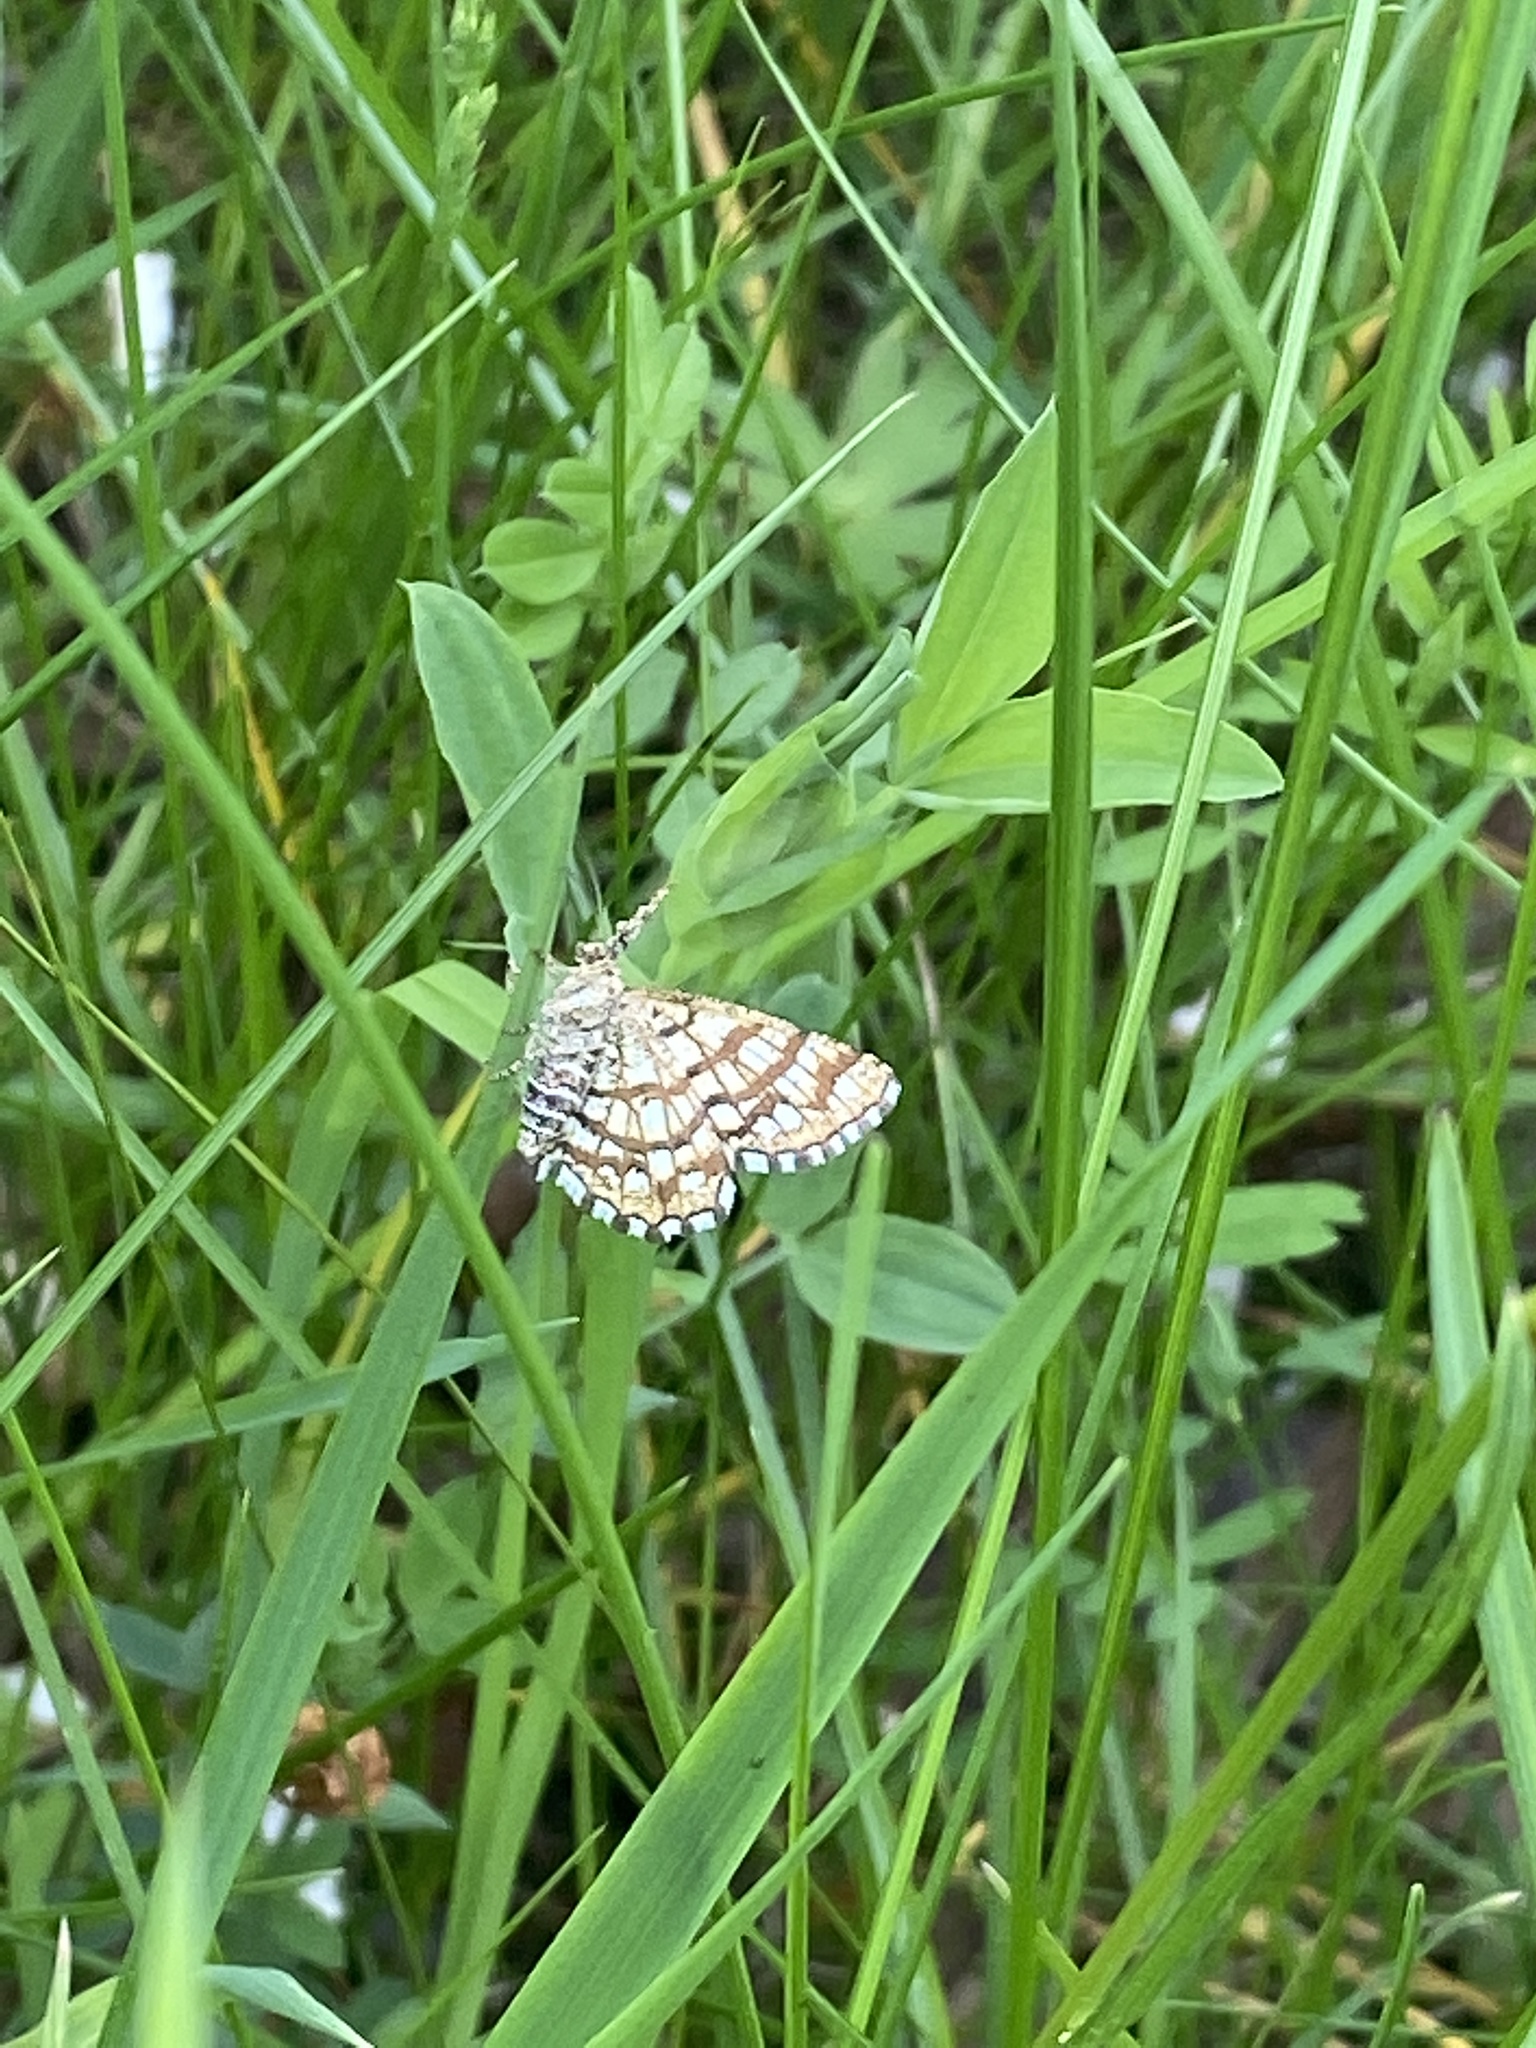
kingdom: Animalia
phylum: Arthropoda
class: Insecta
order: Lepidoptera
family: Geometridae
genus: Chiasmia
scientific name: Chiasmia clathrata
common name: Latticed heath
